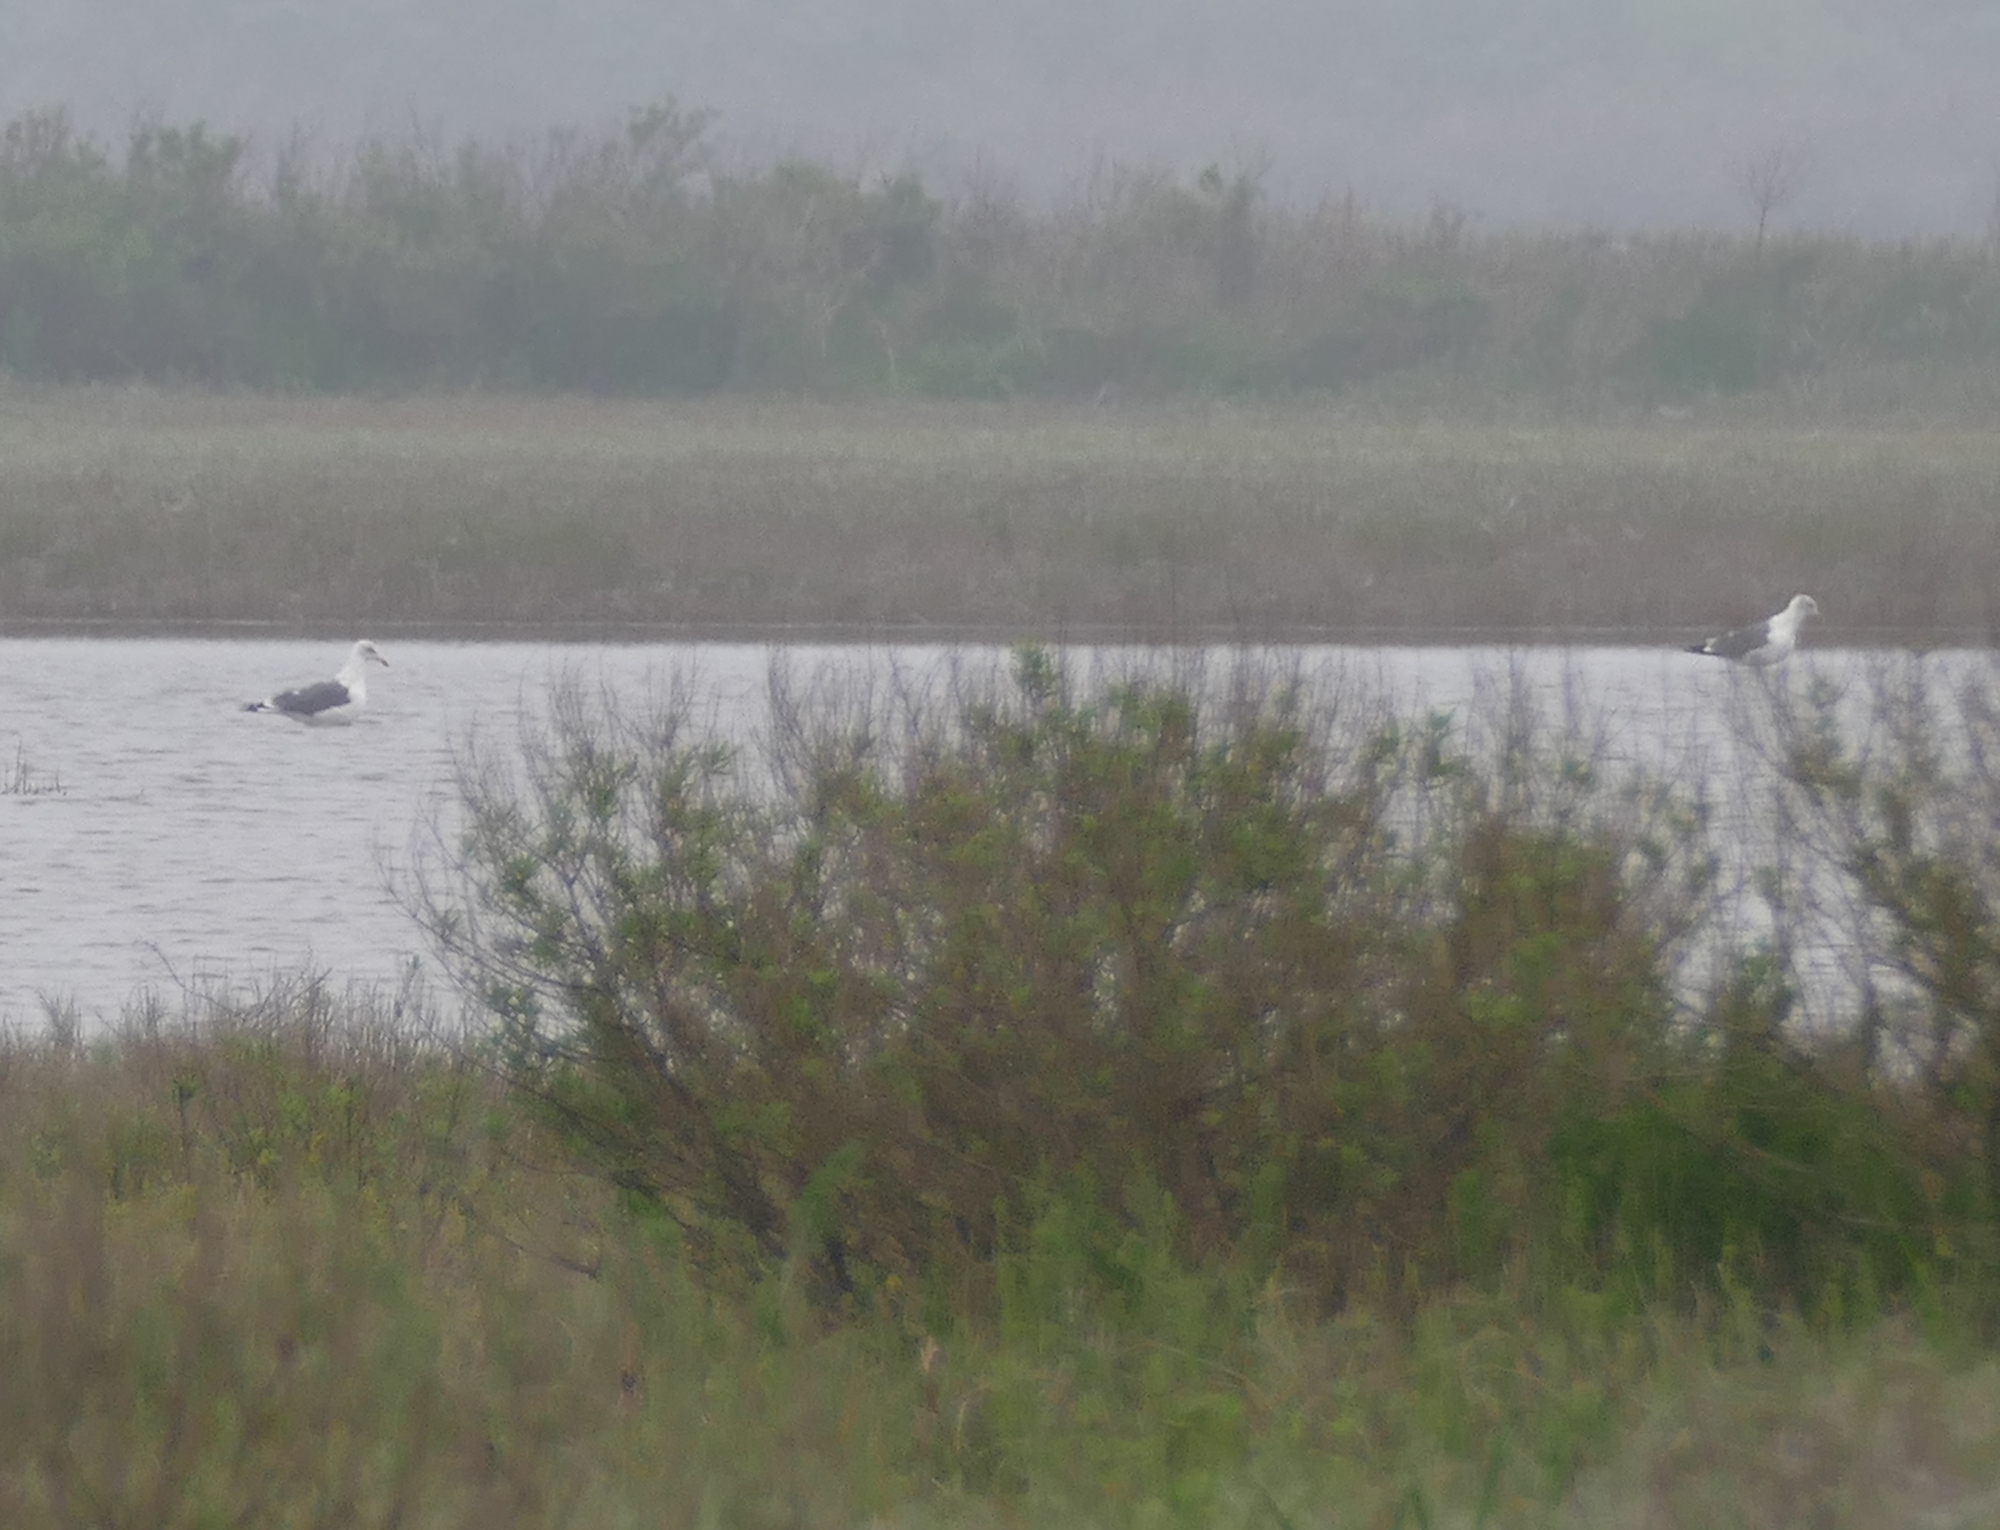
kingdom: Animalia
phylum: Chordata
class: Aves
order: Charadriiformes
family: Laridae
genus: Larus
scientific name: Larus fuscus
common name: Lesser black-backed gull
